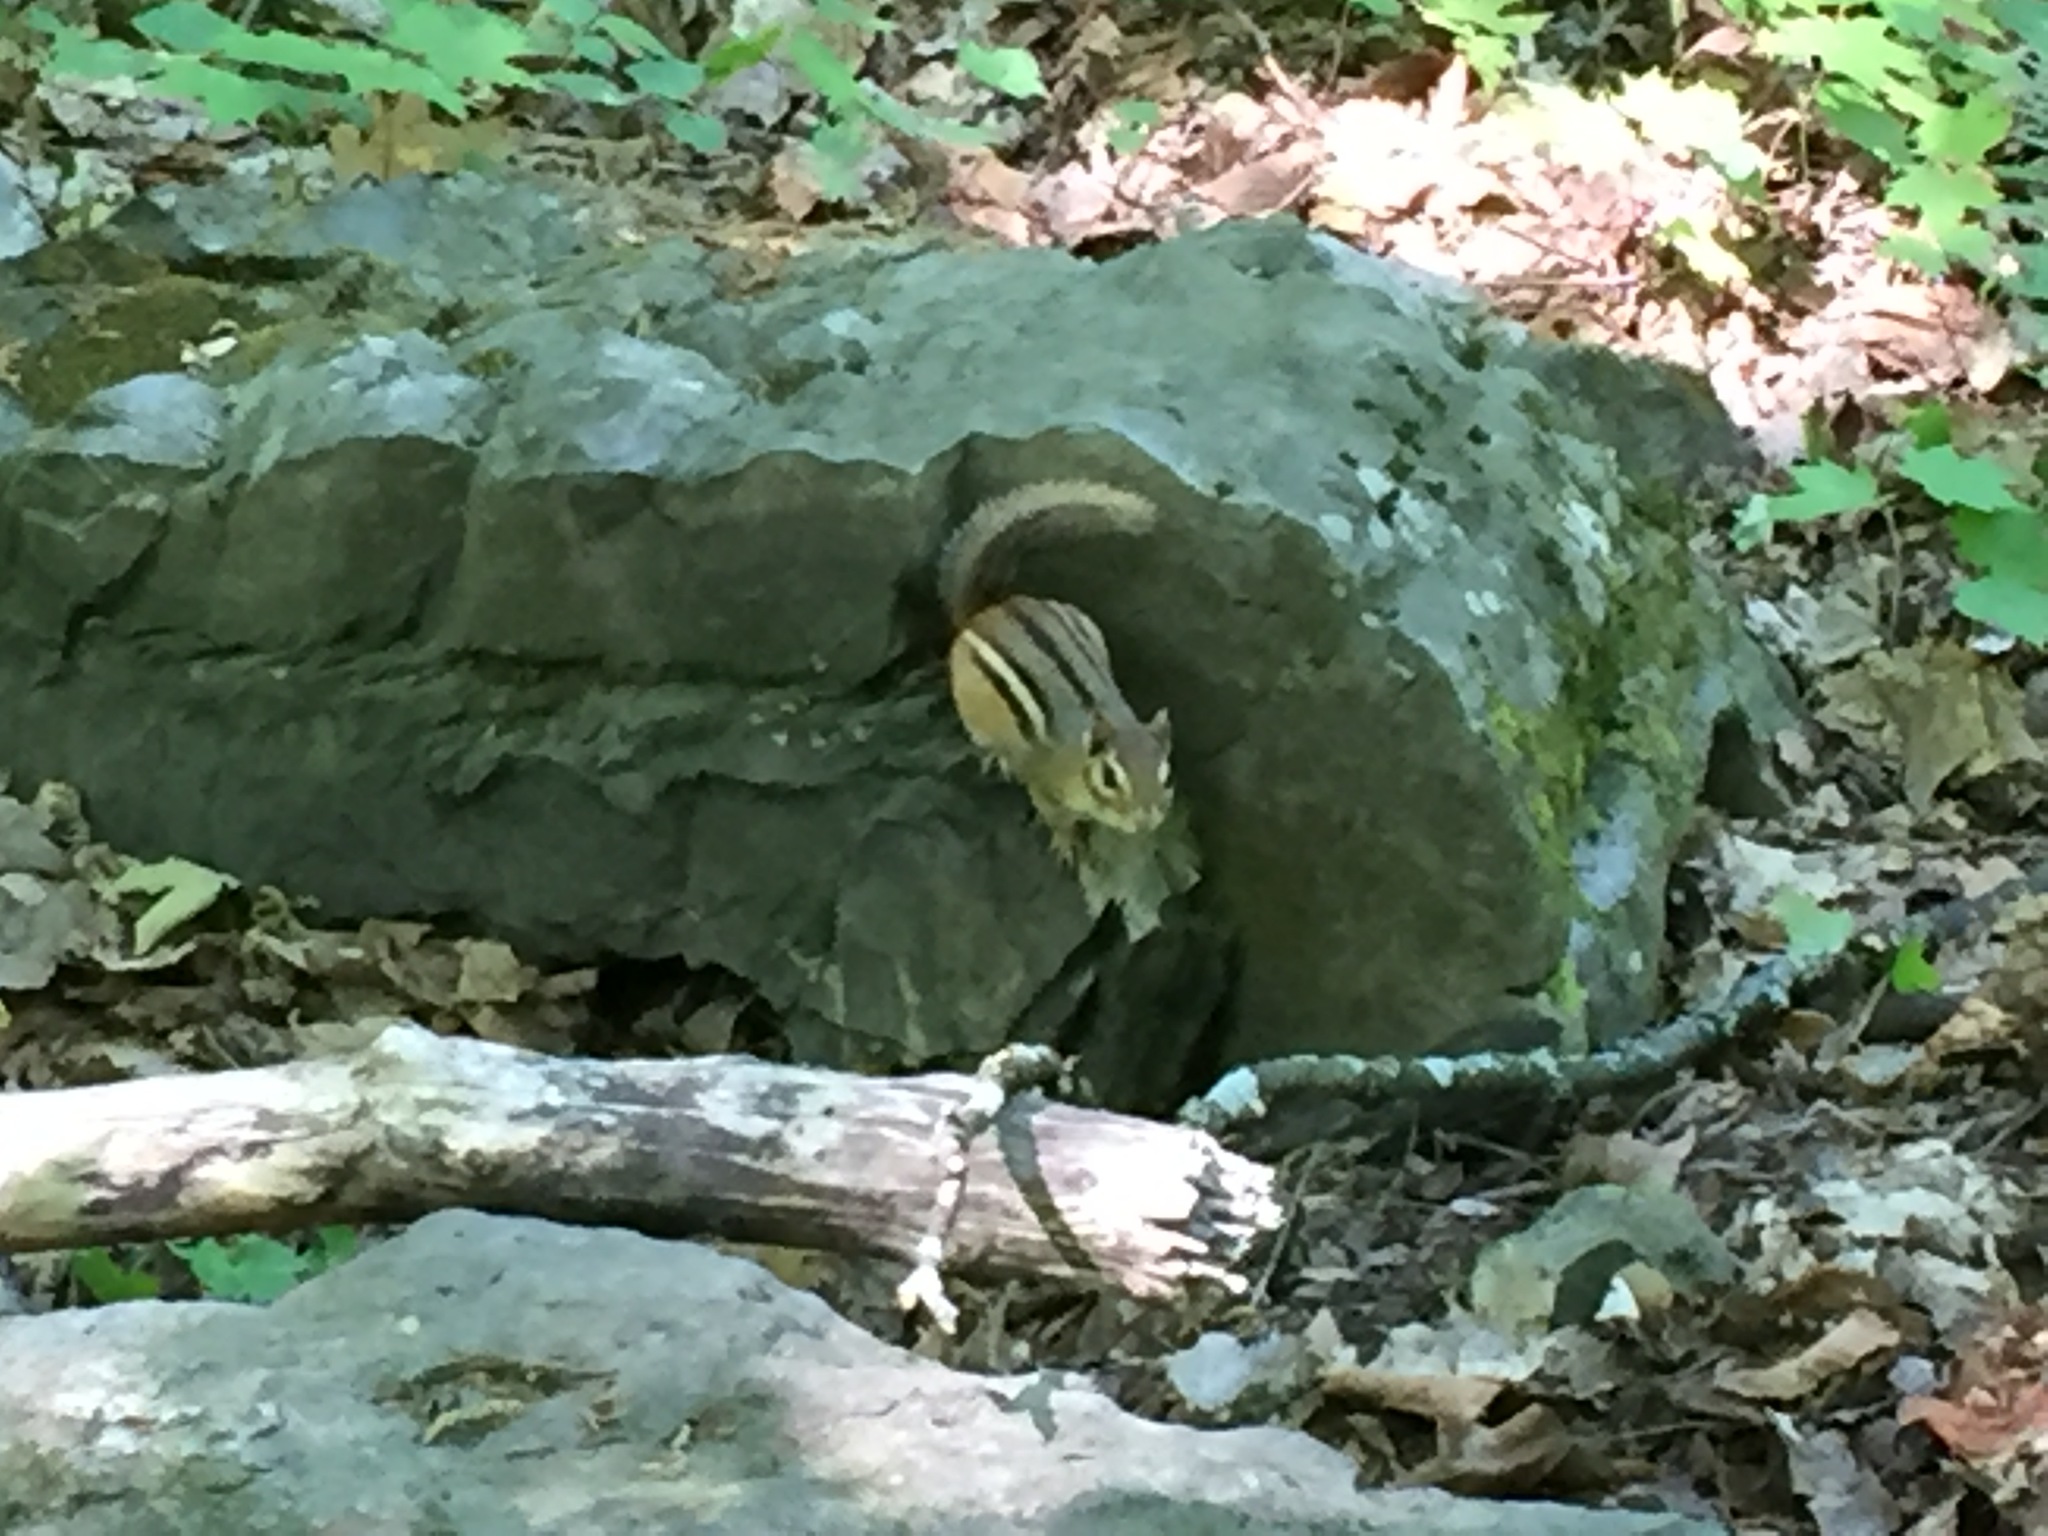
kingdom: Animalia
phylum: Chordata
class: Mammalia
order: Rodentia
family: Sciuridae
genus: Tamias
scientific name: Tamias striatus
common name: Eastern chipmunk
